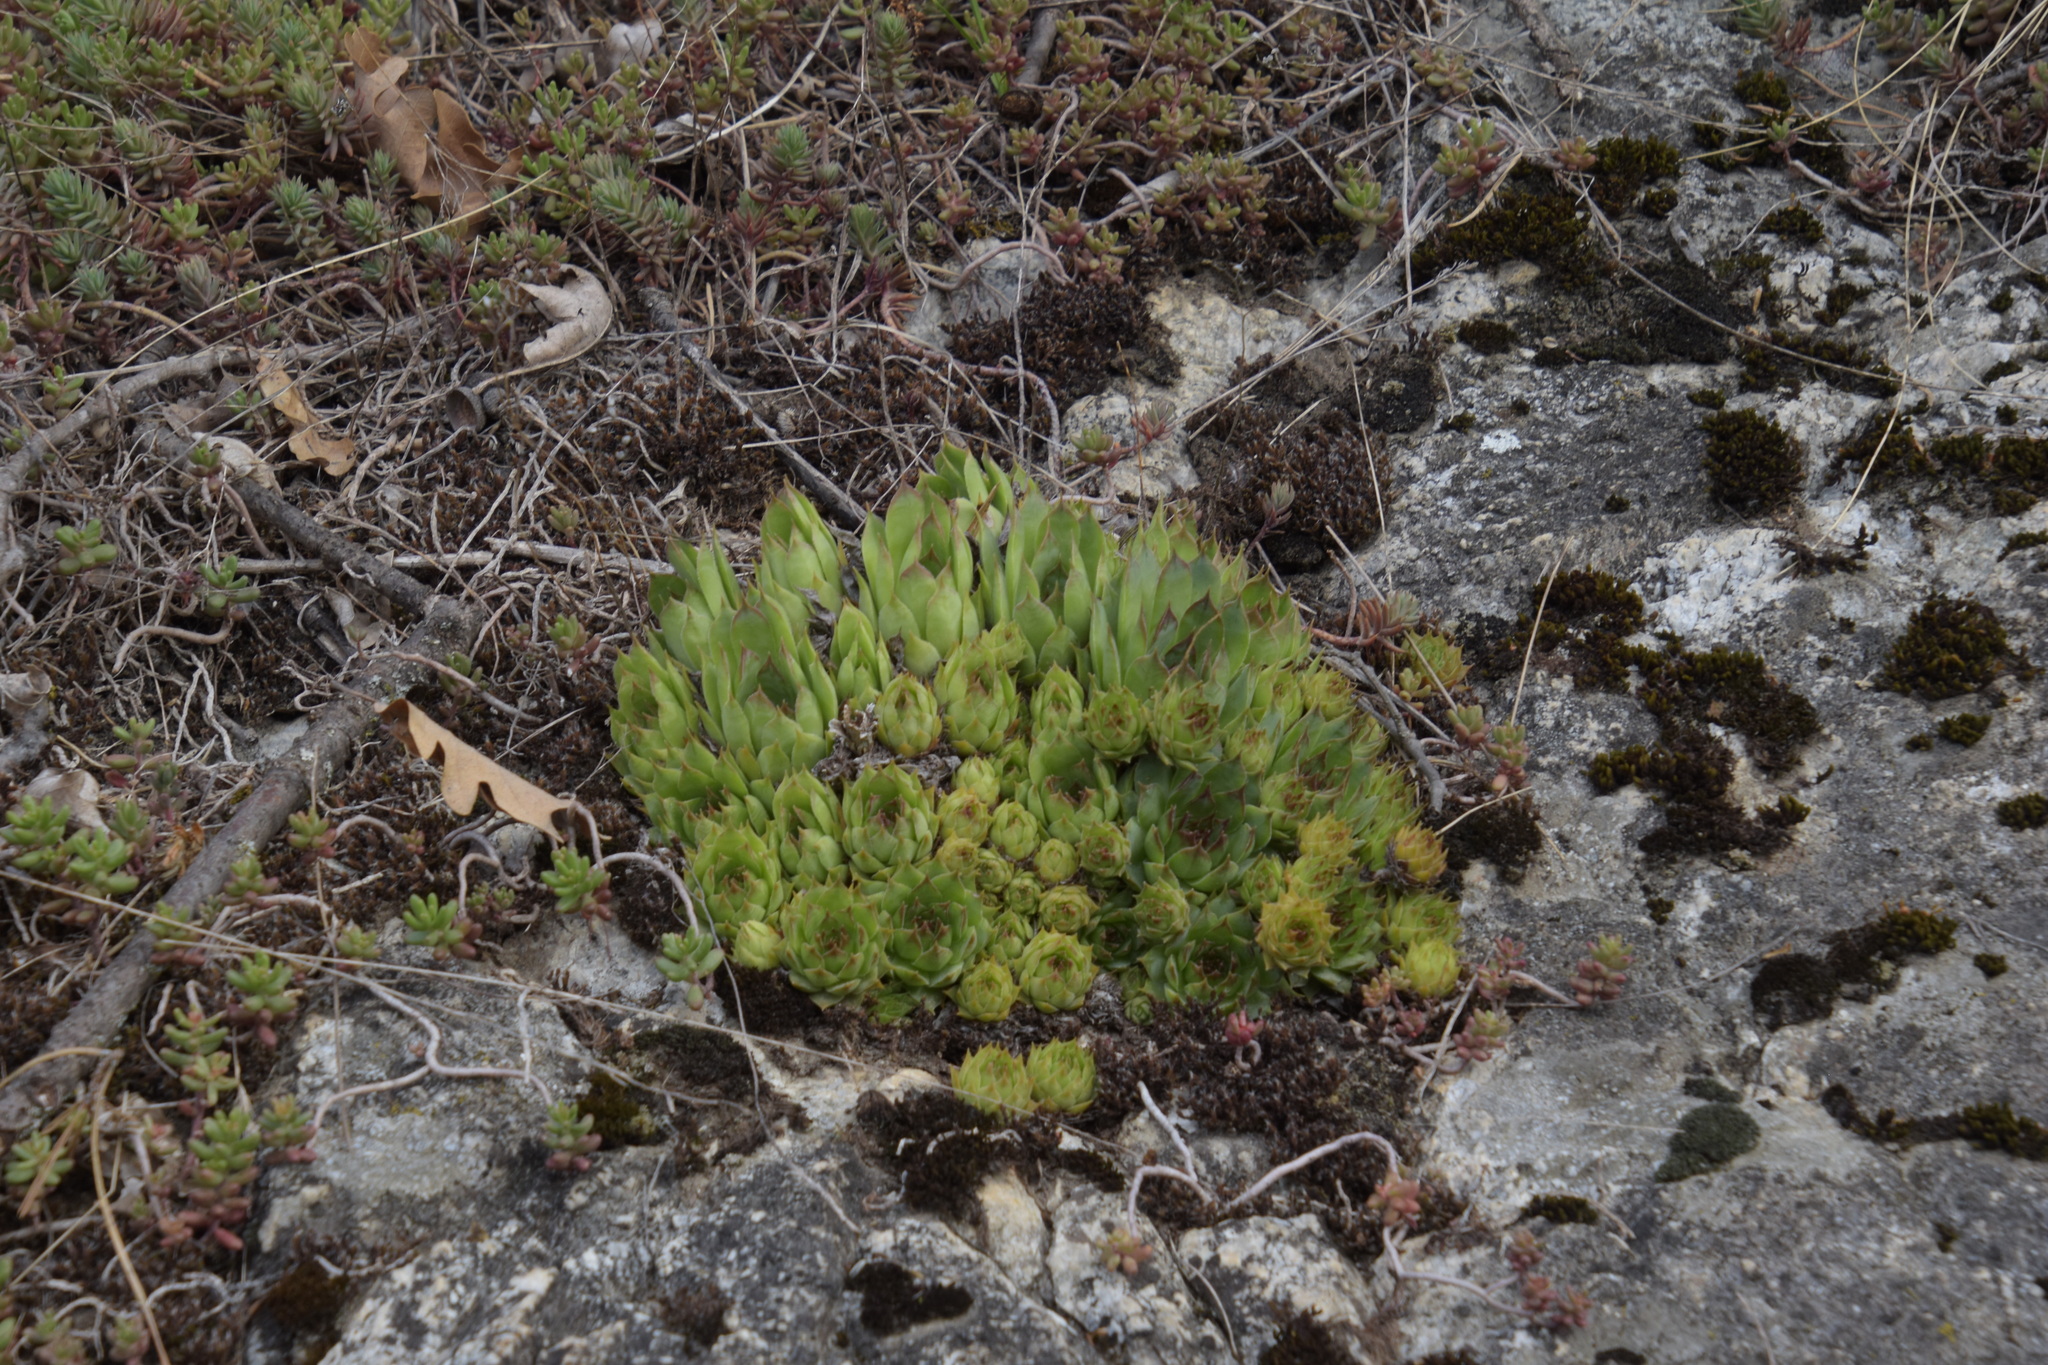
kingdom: Plantae
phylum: Tracheophyta
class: Magnoliopsida
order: Saxifragales
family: Crassulaceae
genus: Sempervivum
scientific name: Sempervivum tectorum
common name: House-leek
